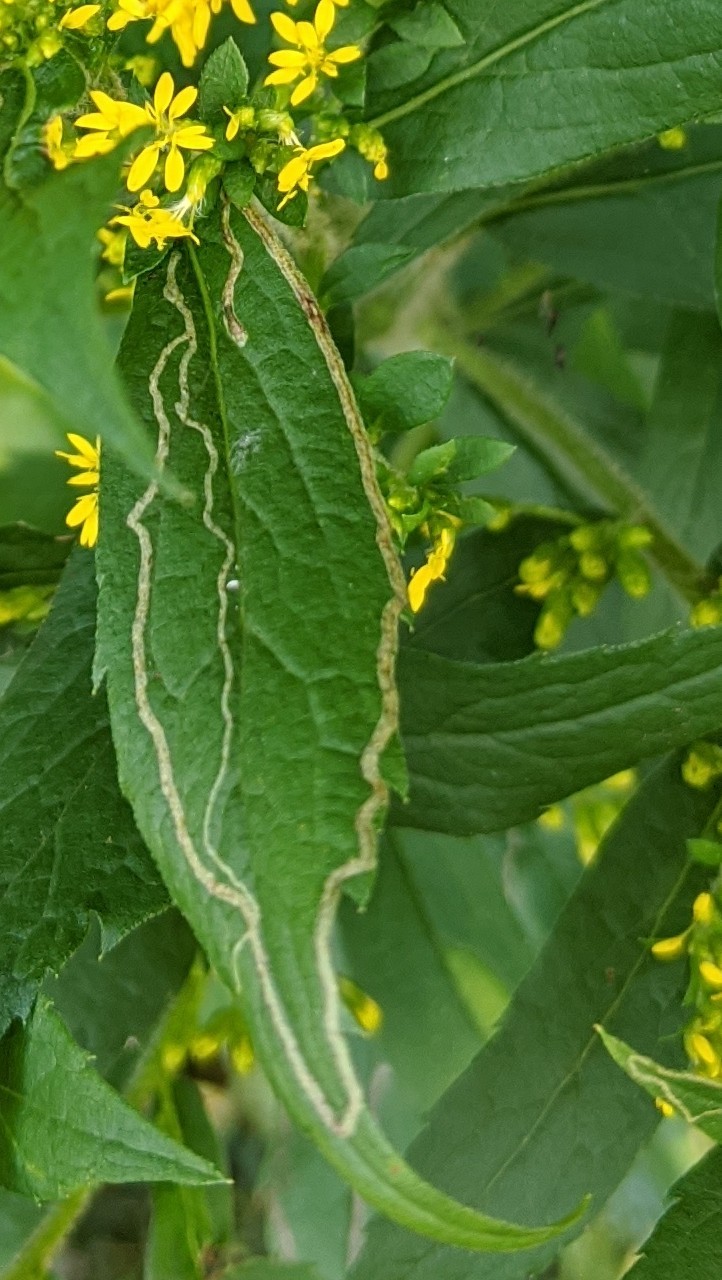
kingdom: Animalia
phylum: Arthropoda
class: Insecta
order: Diptera
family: Agromyzidae
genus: Ophiomyia
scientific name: Ophiomyia maura
